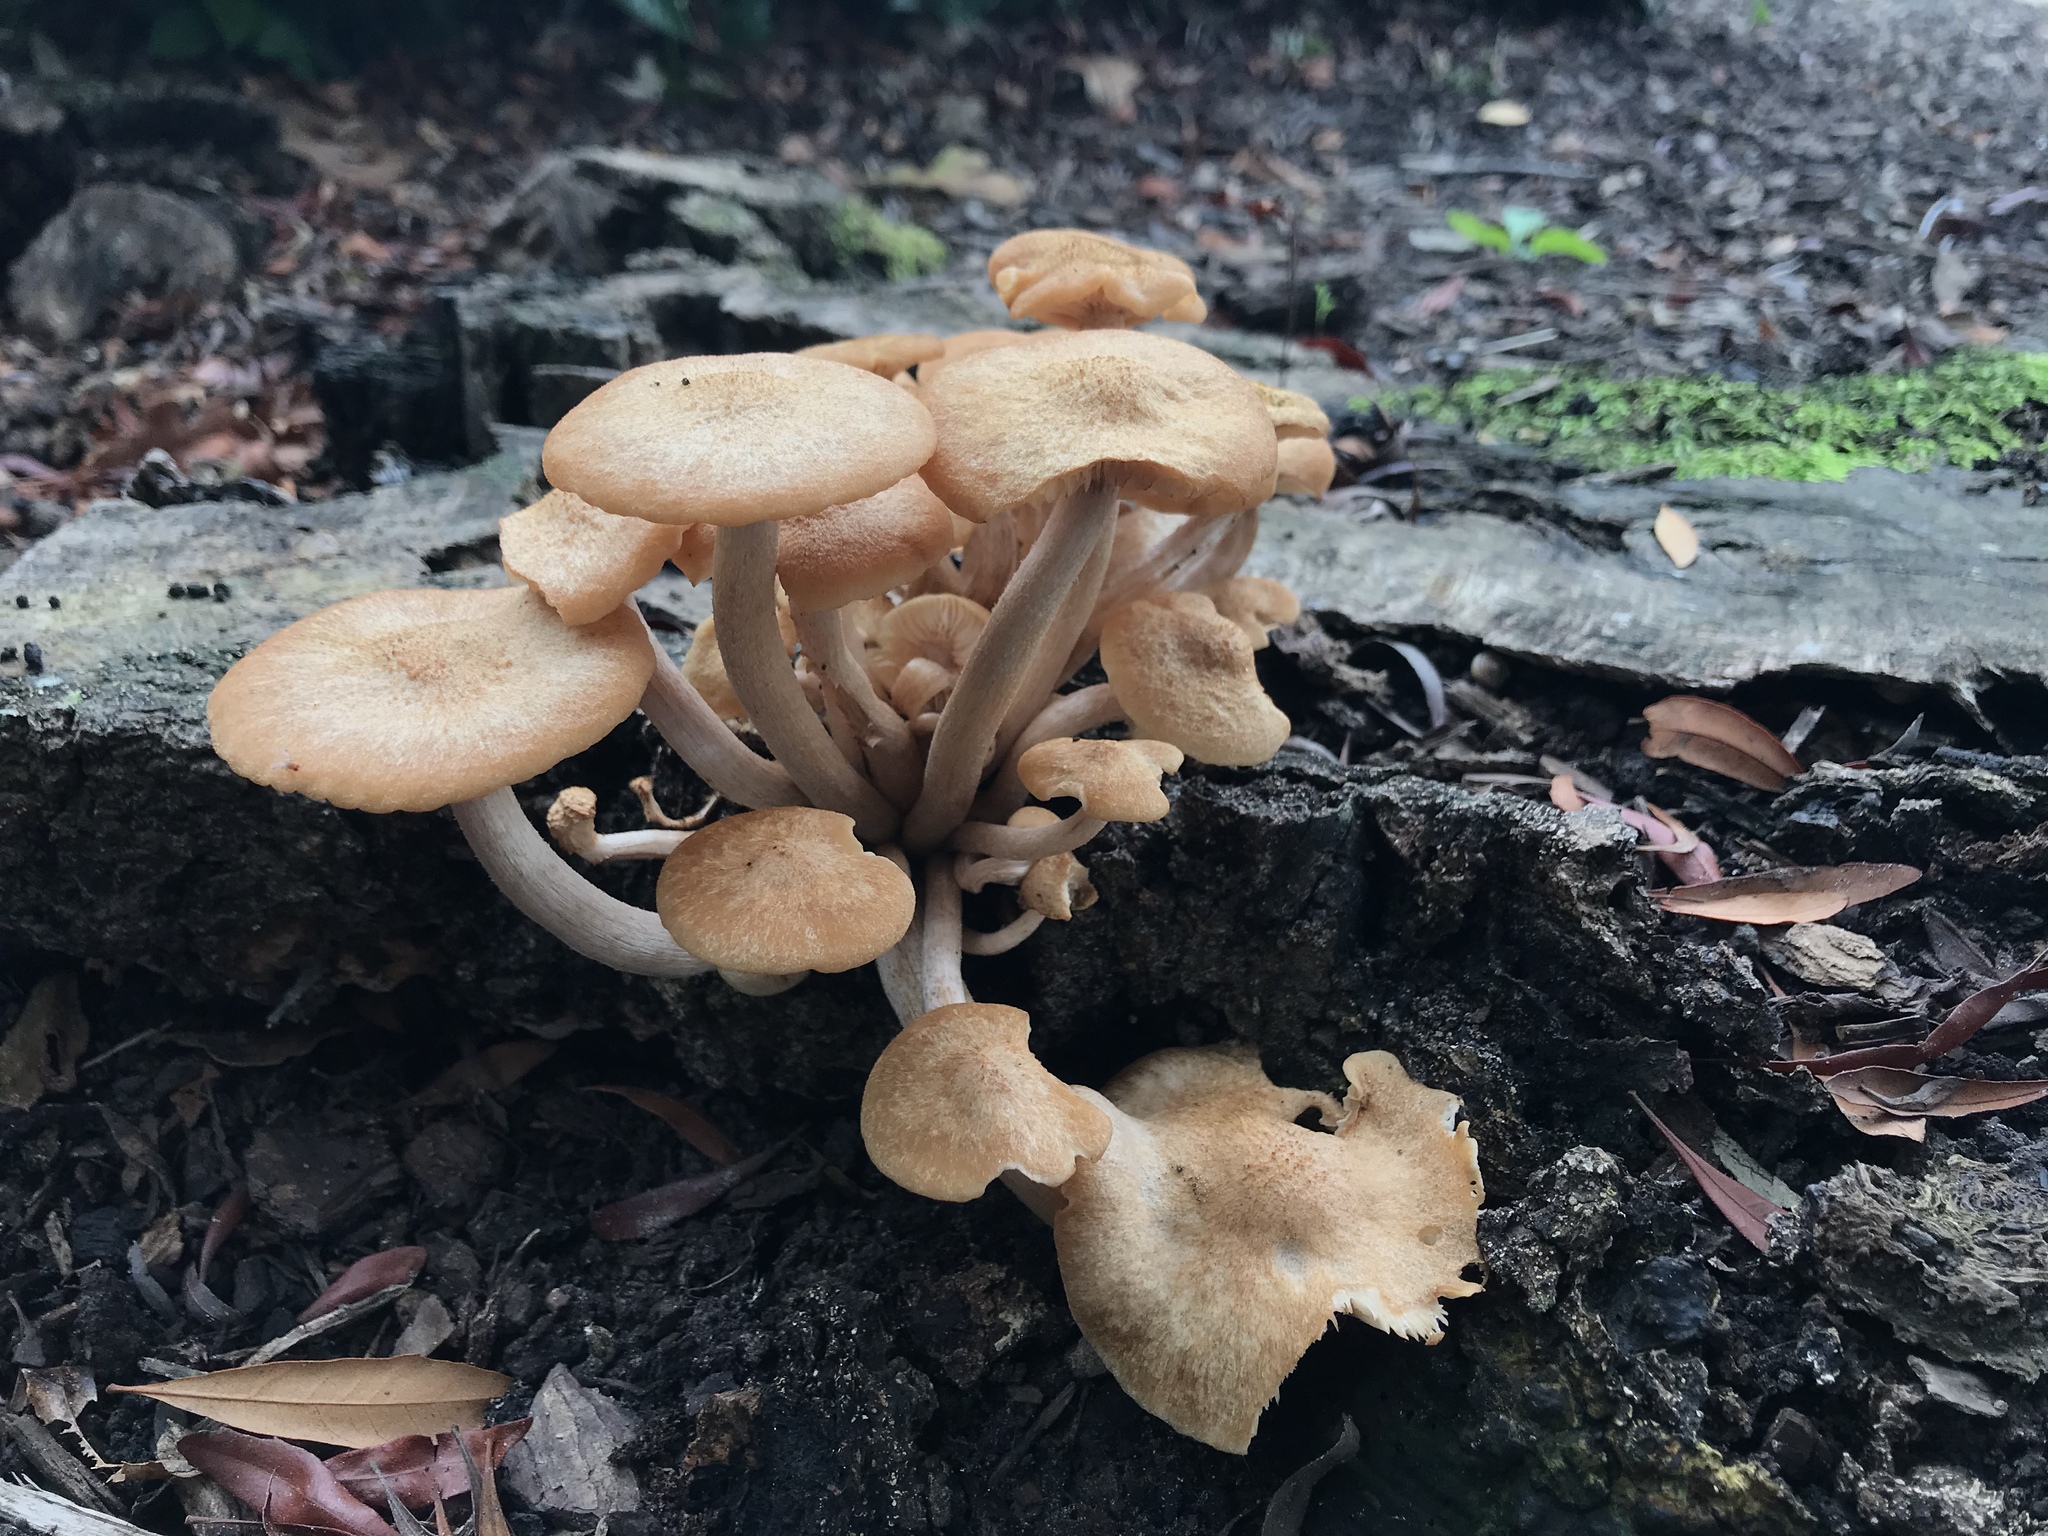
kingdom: Fungi
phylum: Basidiomycota
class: Agaricomycetes
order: Agaricales
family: Physalacriaceae
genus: Desarmillaria
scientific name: Desarmillaria caespitosa
